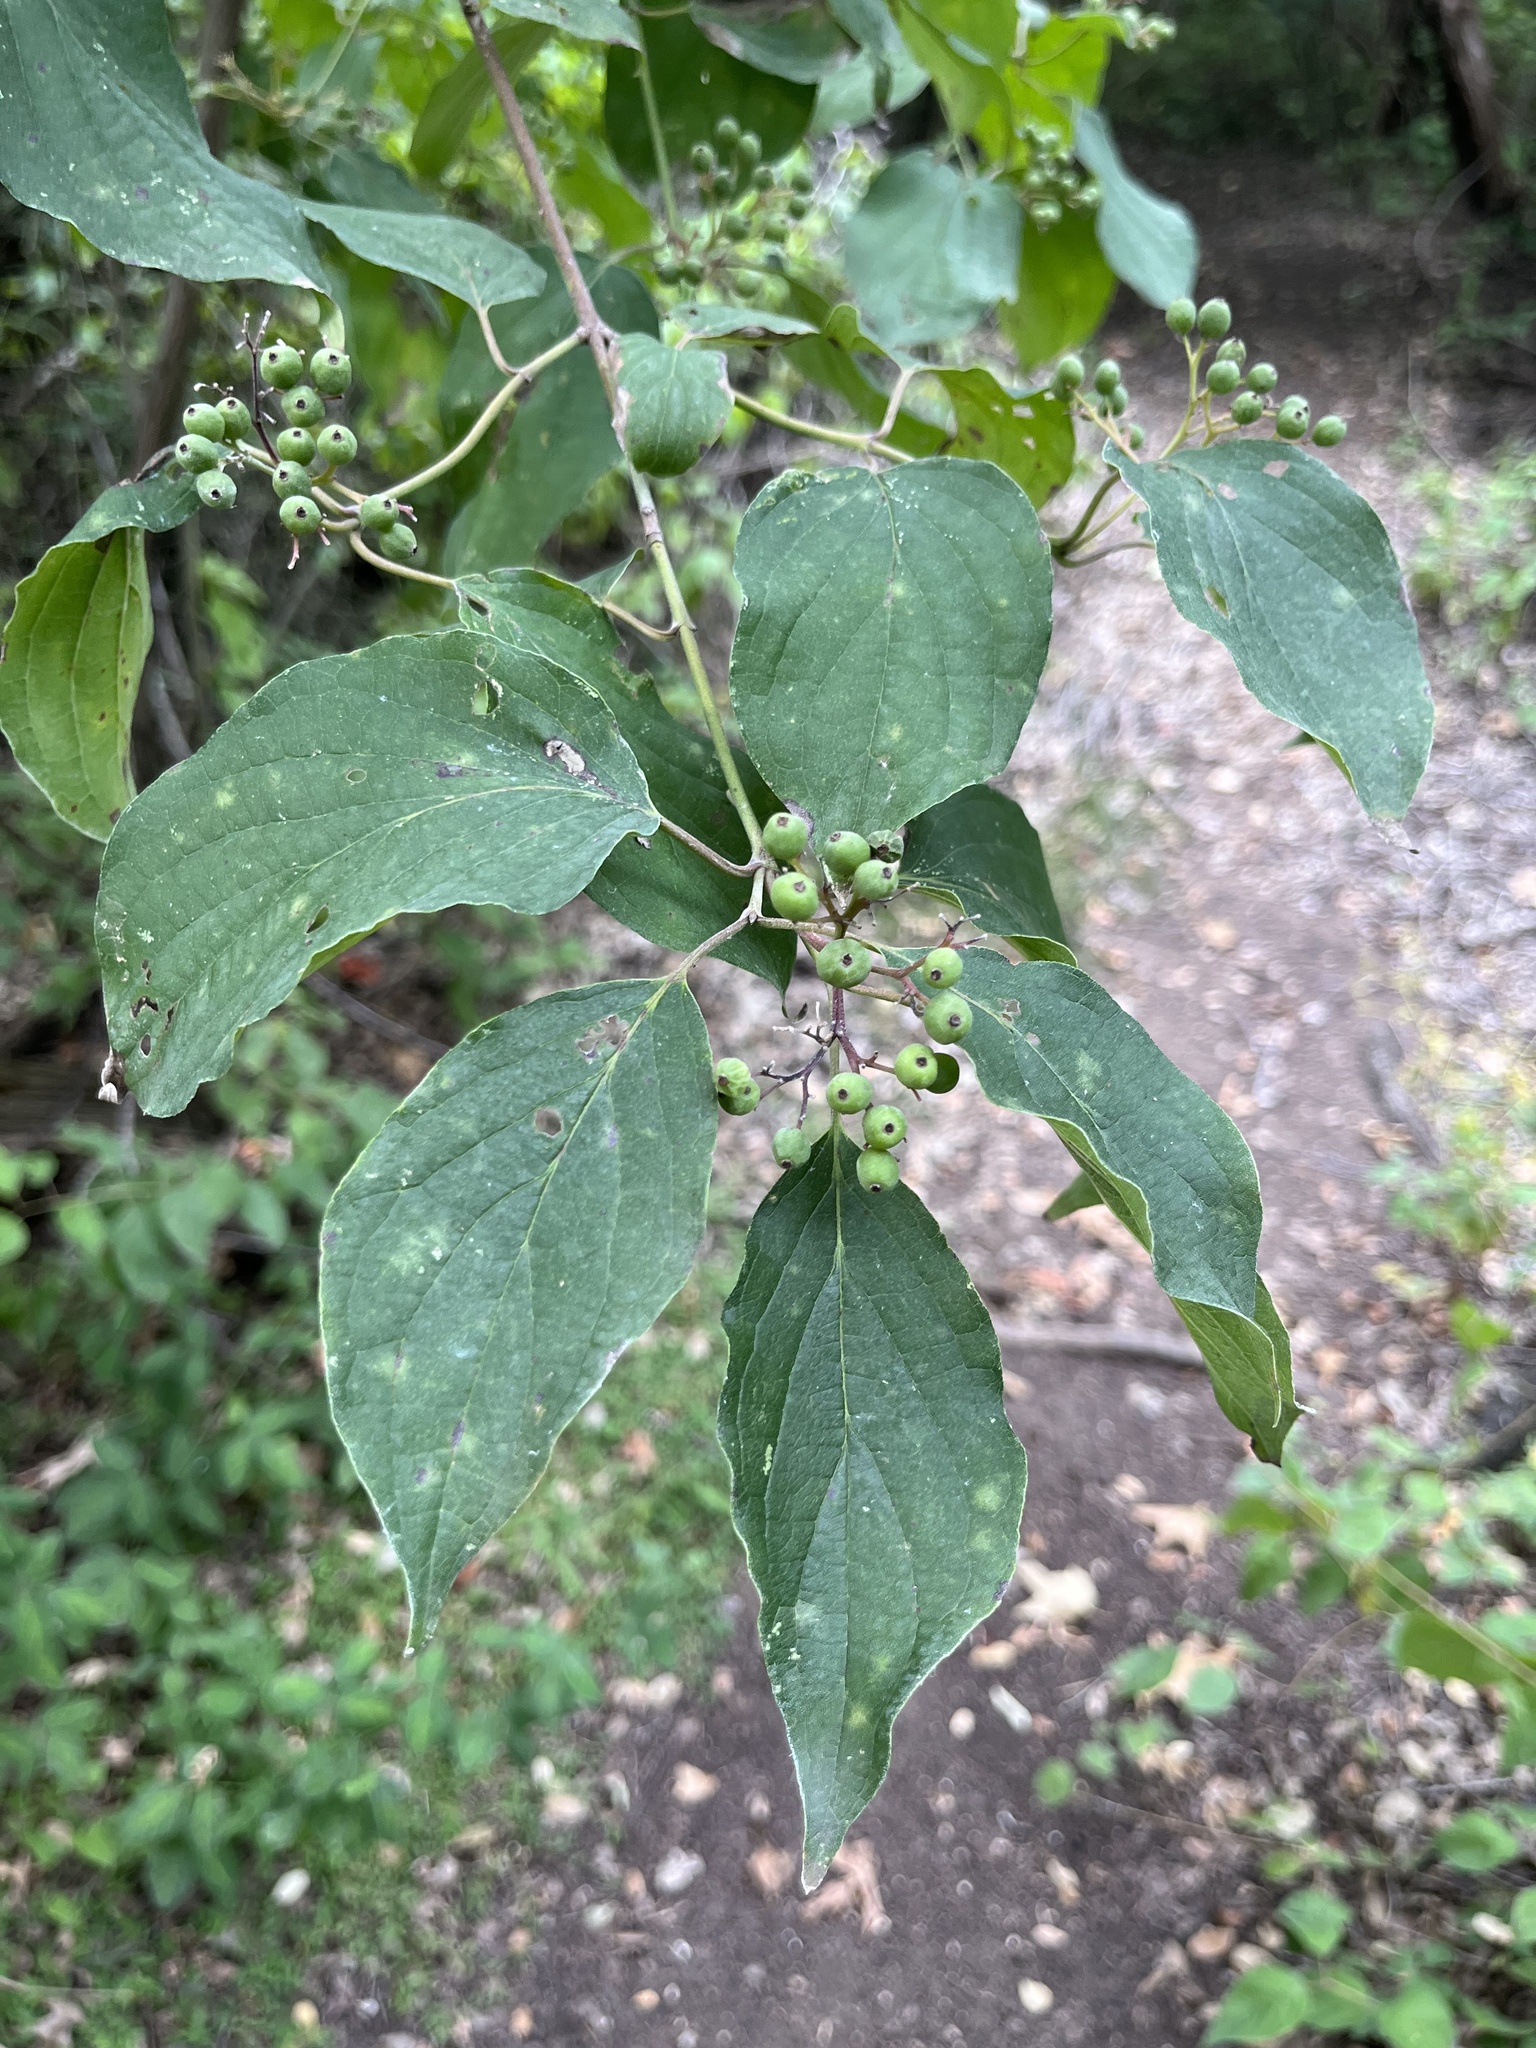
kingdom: Plantae
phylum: Tracheophyta
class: Magnoliopsida
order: Cornales
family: Cornaceae
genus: Cornus
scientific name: Cornus drummondii
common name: Rough-leaf dogwood
